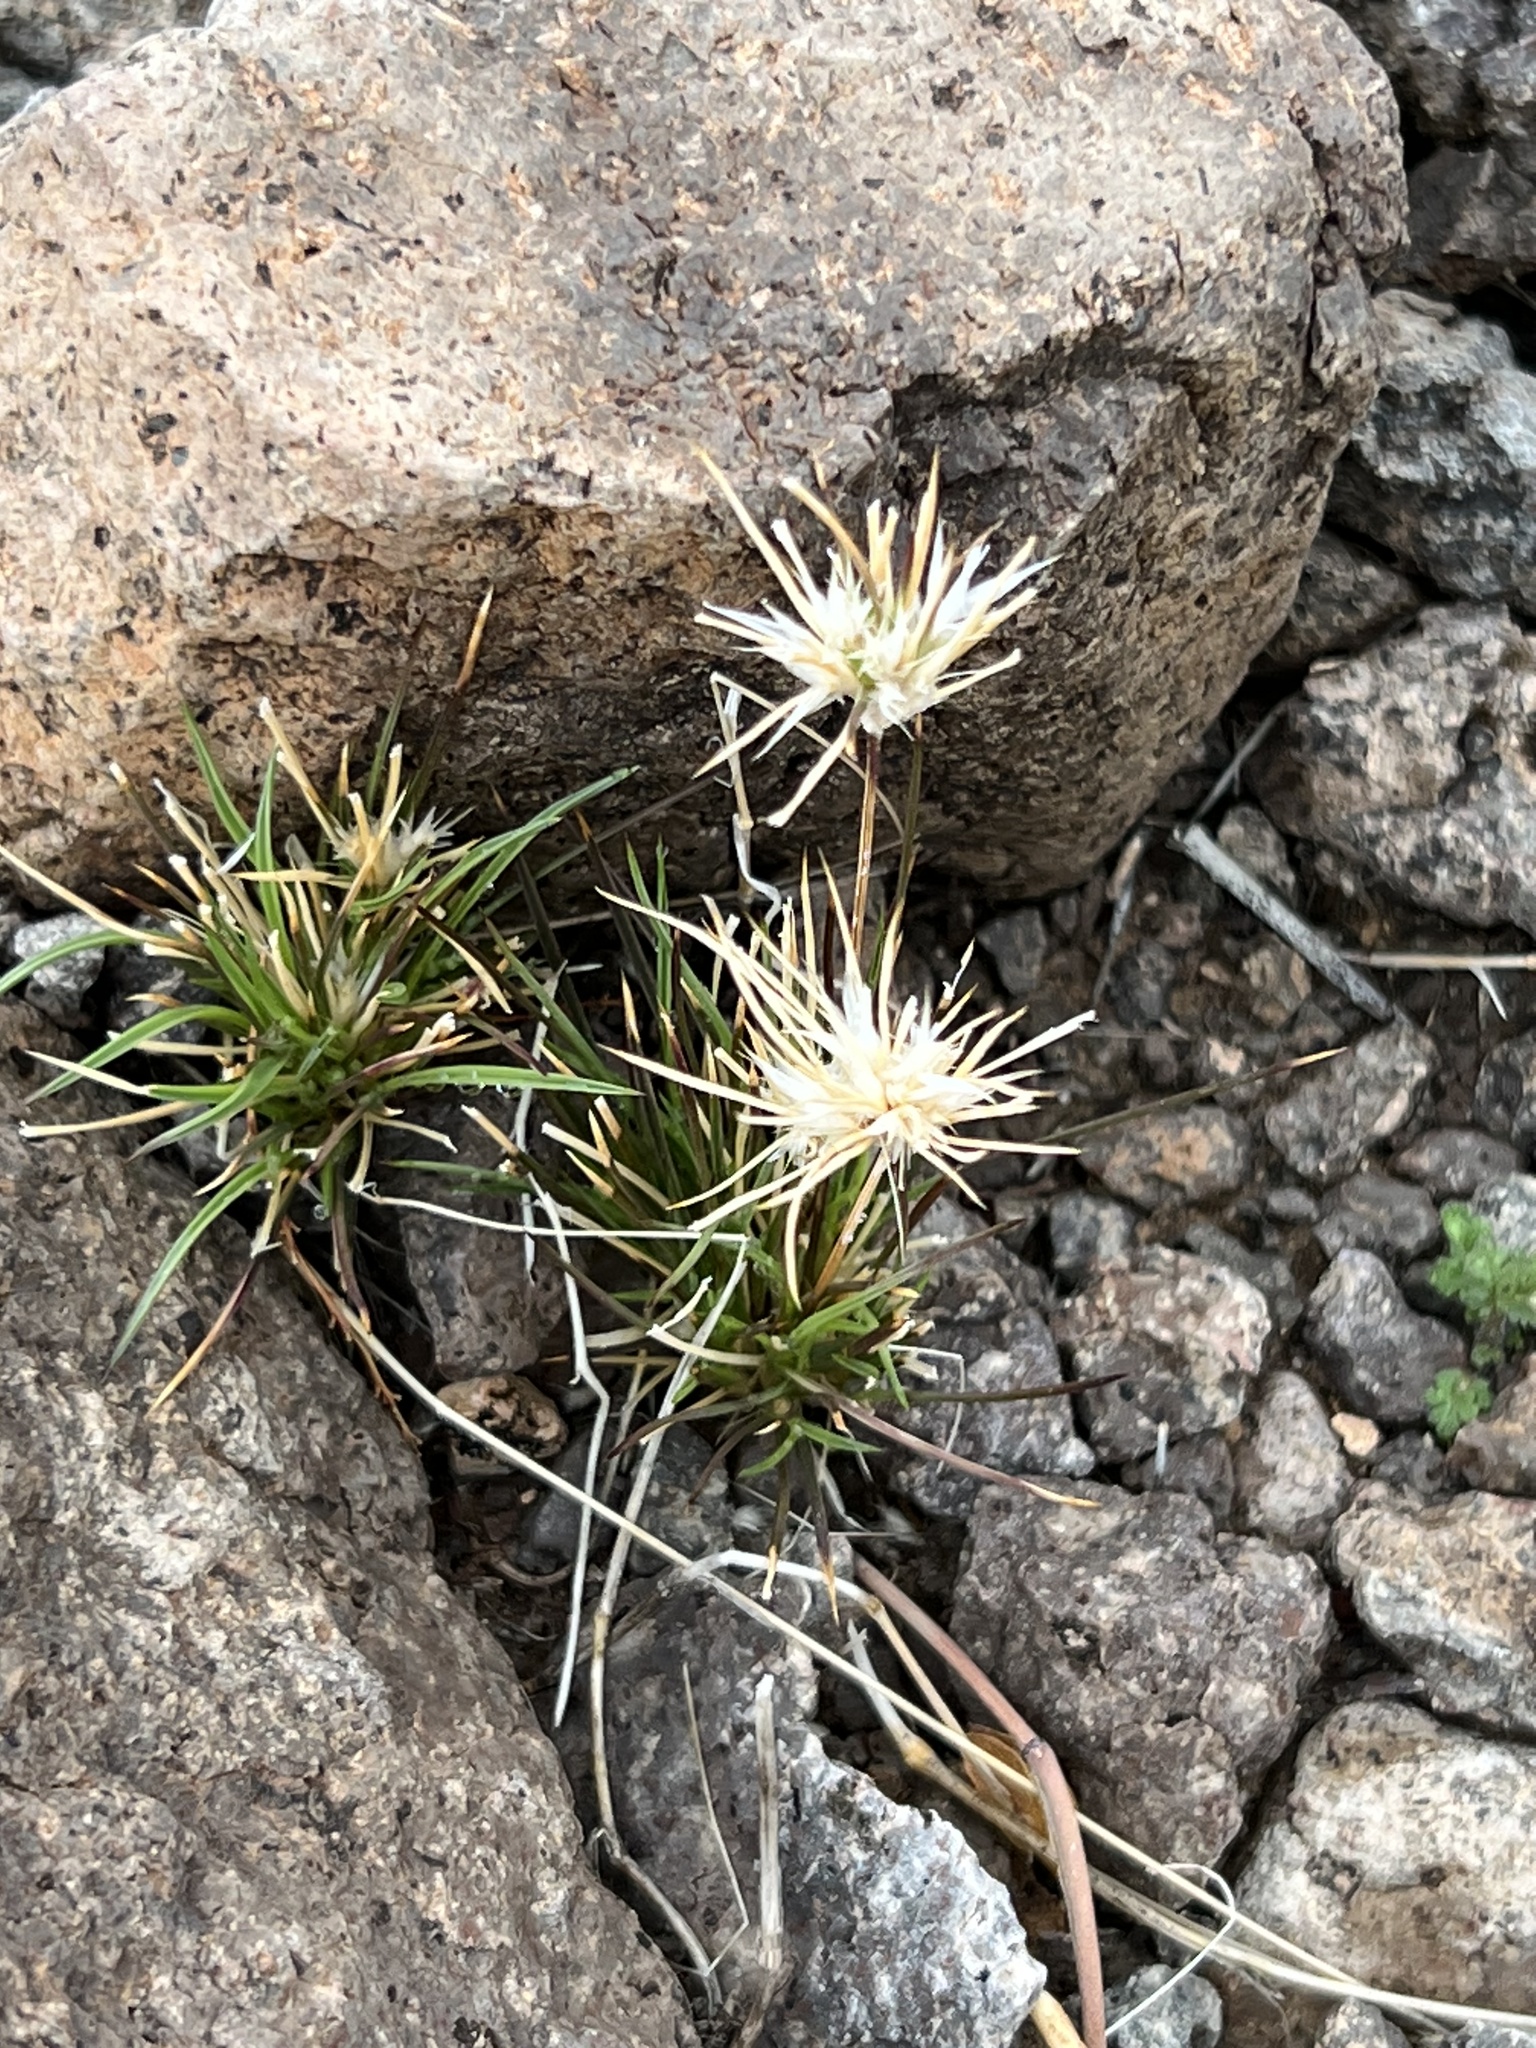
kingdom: Plantae
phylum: Tracheophyta
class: Liliopsida
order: Poales
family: Poaceae
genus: Dasyochloa
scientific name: Dasyochloa pulchella
